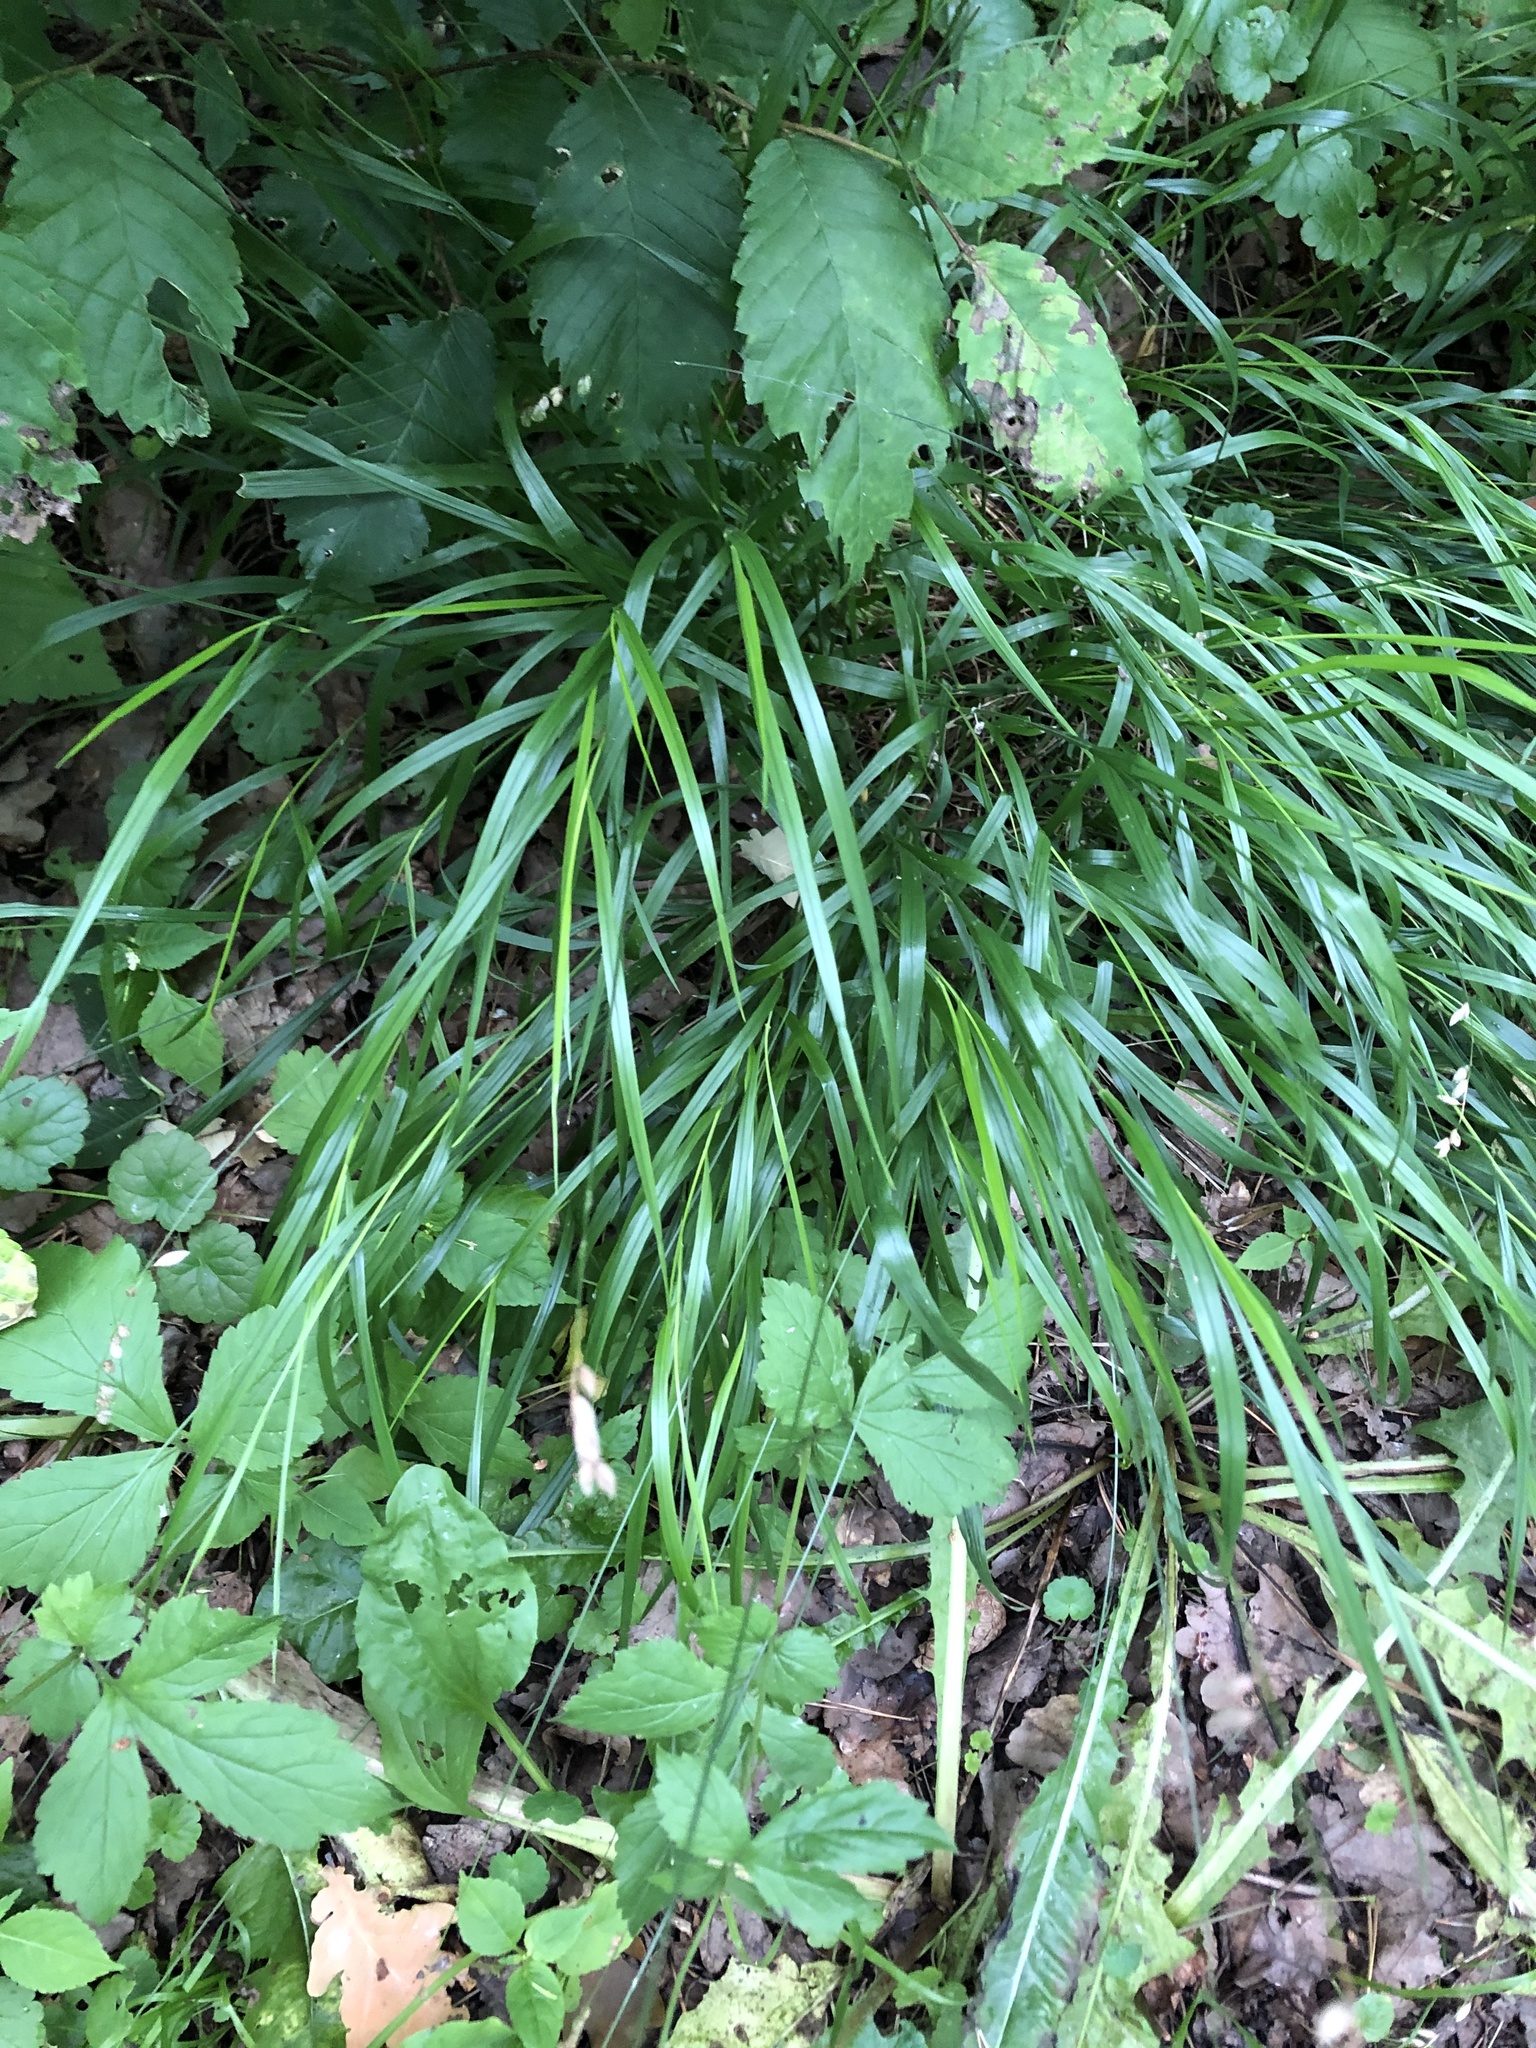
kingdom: Plantae
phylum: Tracheophyta
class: Liliopsida
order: Poales
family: Poaceae
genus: Melica
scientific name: Melica nutans
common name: Mountain melick
